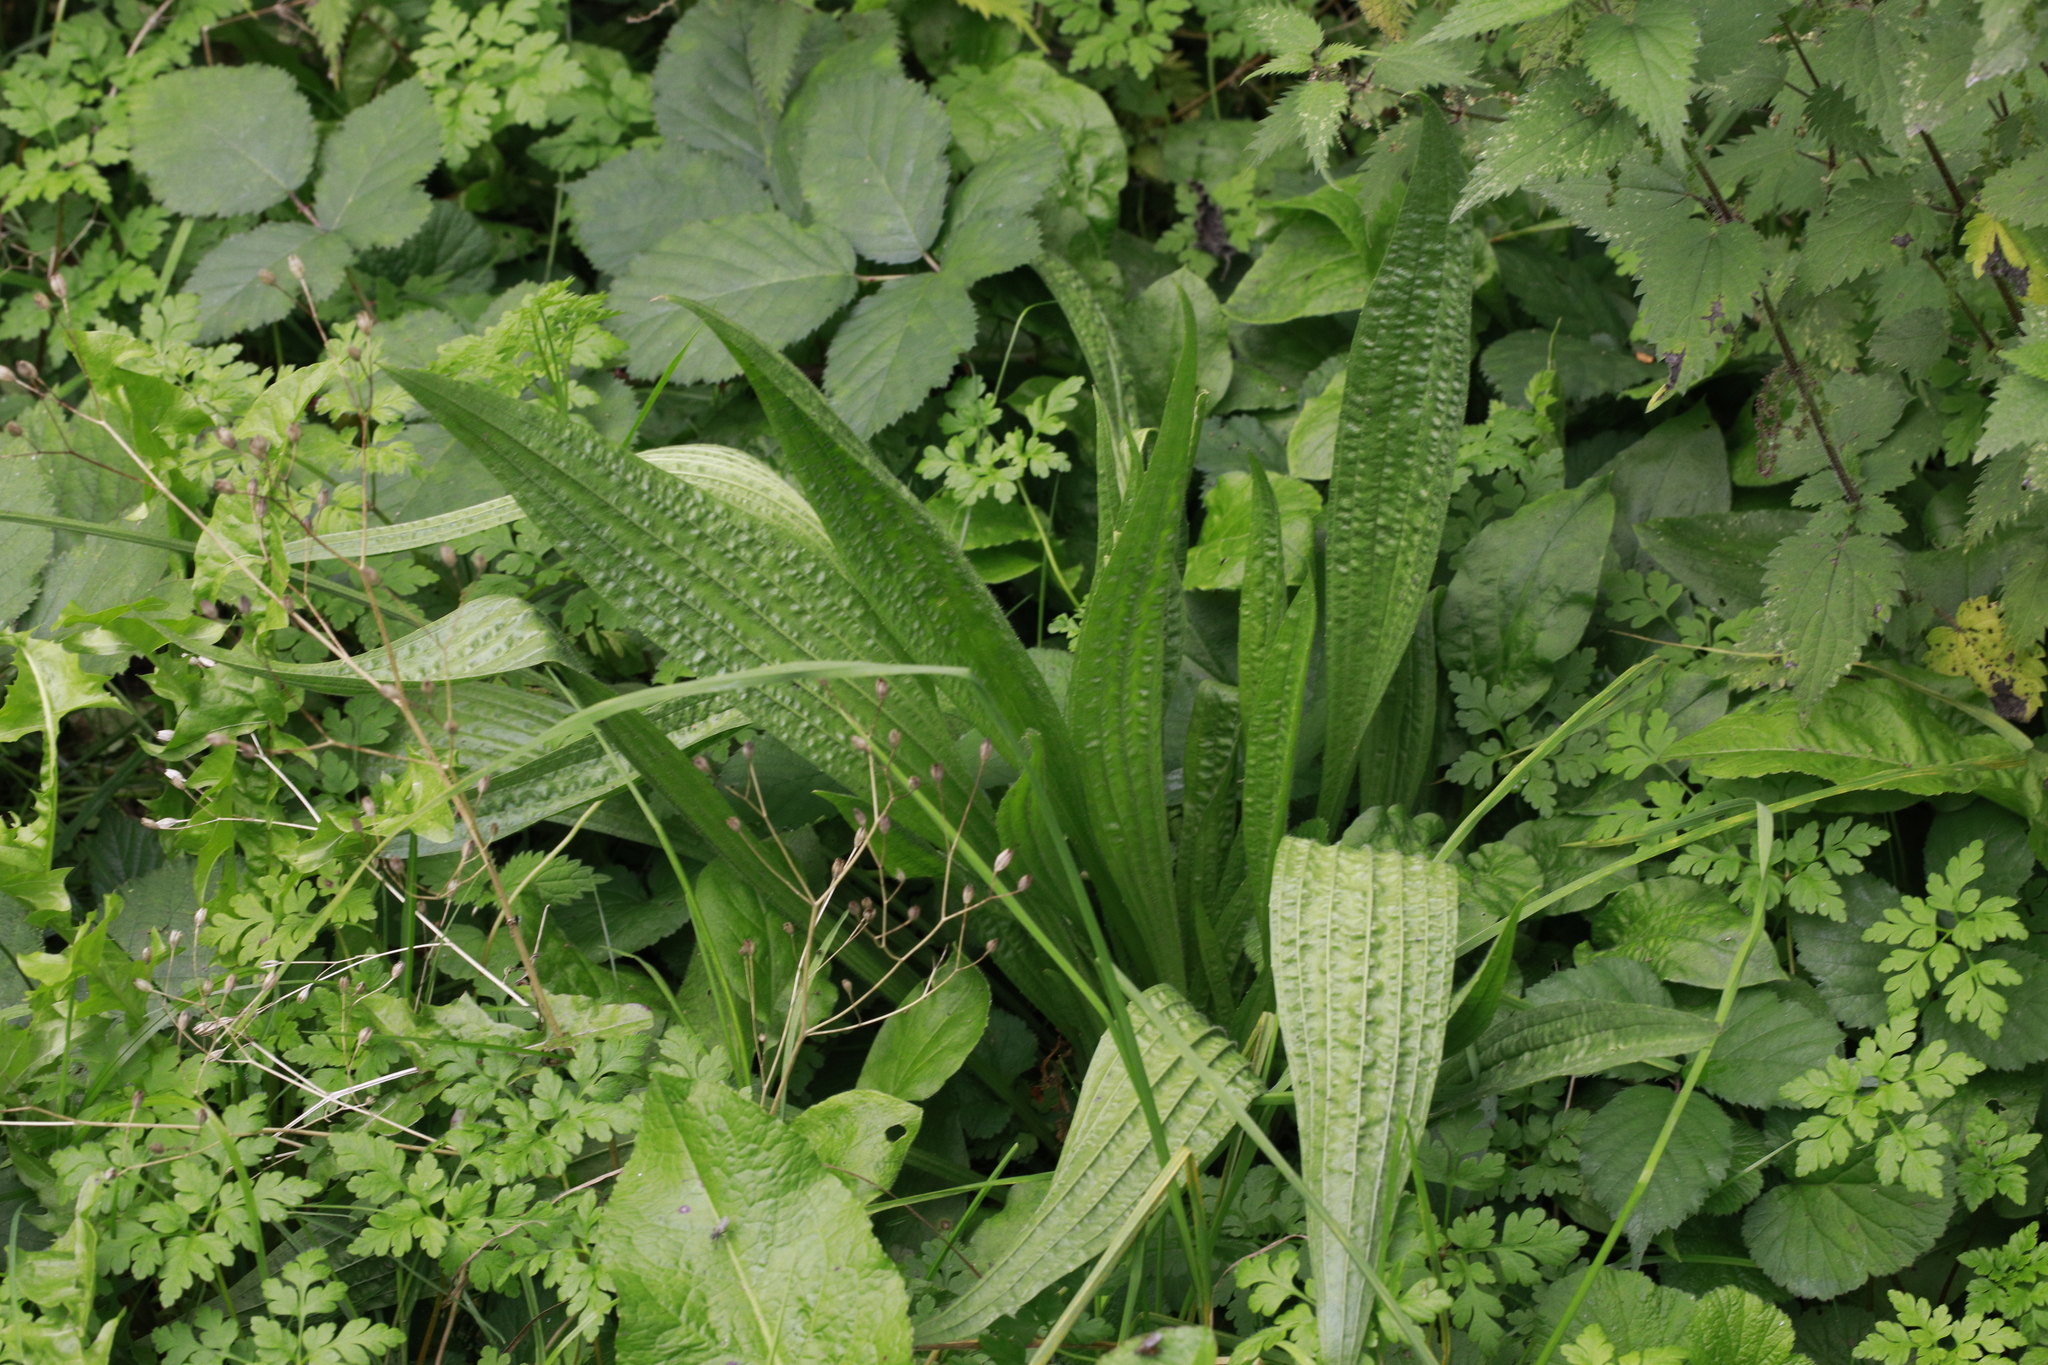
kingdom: Plantae
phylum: Tracheophyta
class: Magnoliopsida
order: Lamiales
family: Plantaginaceae
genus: Plantago
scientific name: Plantago lanceolata
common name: Ribwort plantain
